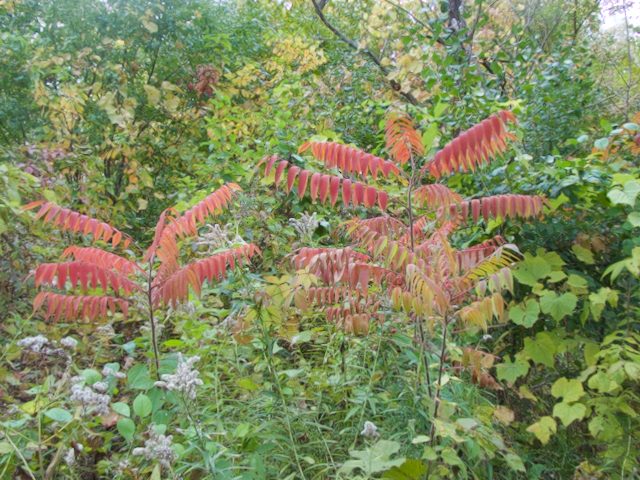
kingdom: Plantae
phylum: Tracheophyta
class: Magnoliopsida
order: Sapindales
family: Anacardiaceae
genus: Rhus
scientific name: Rhus typhina
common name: Staghorn sumac
